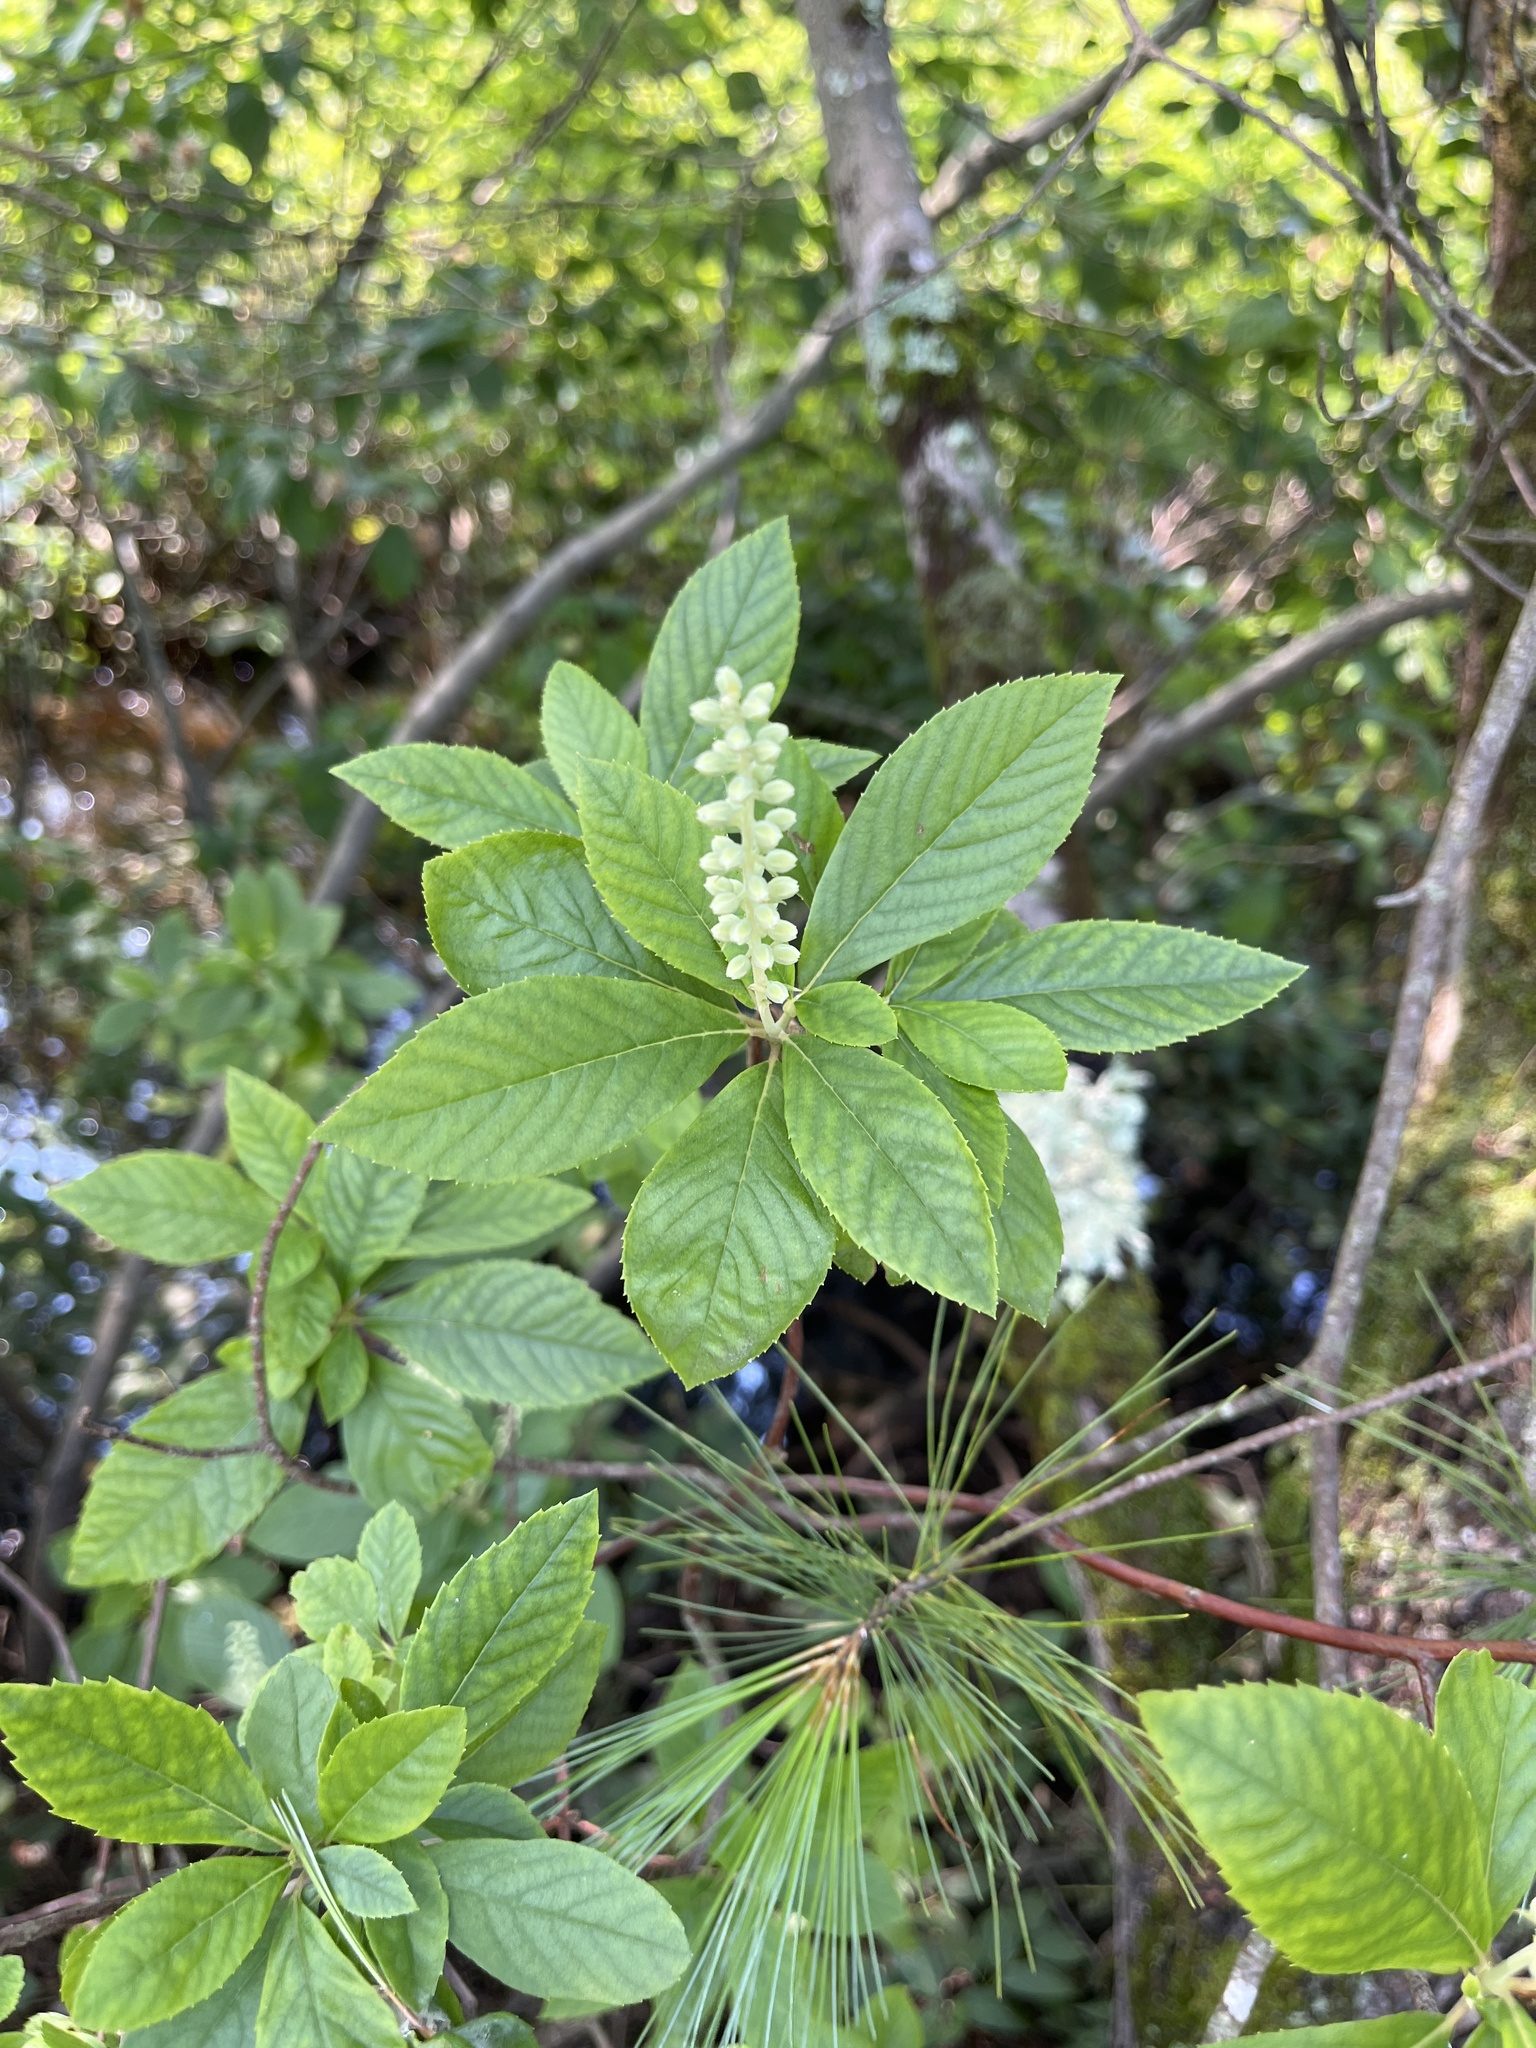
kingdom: Plantae
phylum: Tracheophyta
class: Magnoliopsida
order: Ericales
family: Clethraceae
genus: Clethra
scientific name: Clethra alnifolia
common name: Sweet pepperbush
